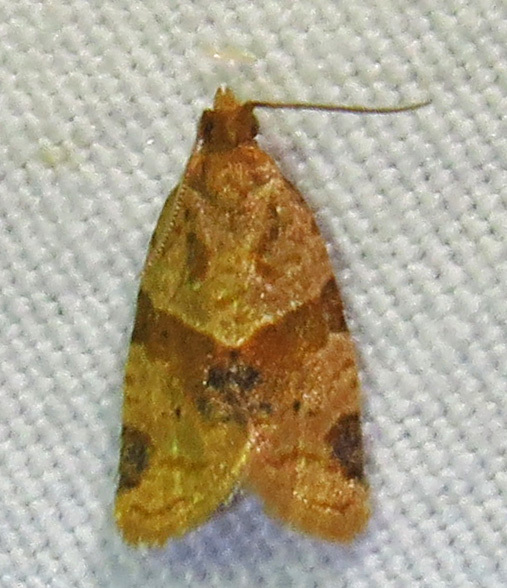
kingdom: Animalia
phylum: Arthropoda
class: Insecta
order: Lepidoptera
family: Tortricidae
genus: Clepsis
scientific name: Clepsis peritana
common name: Garden tortrix
